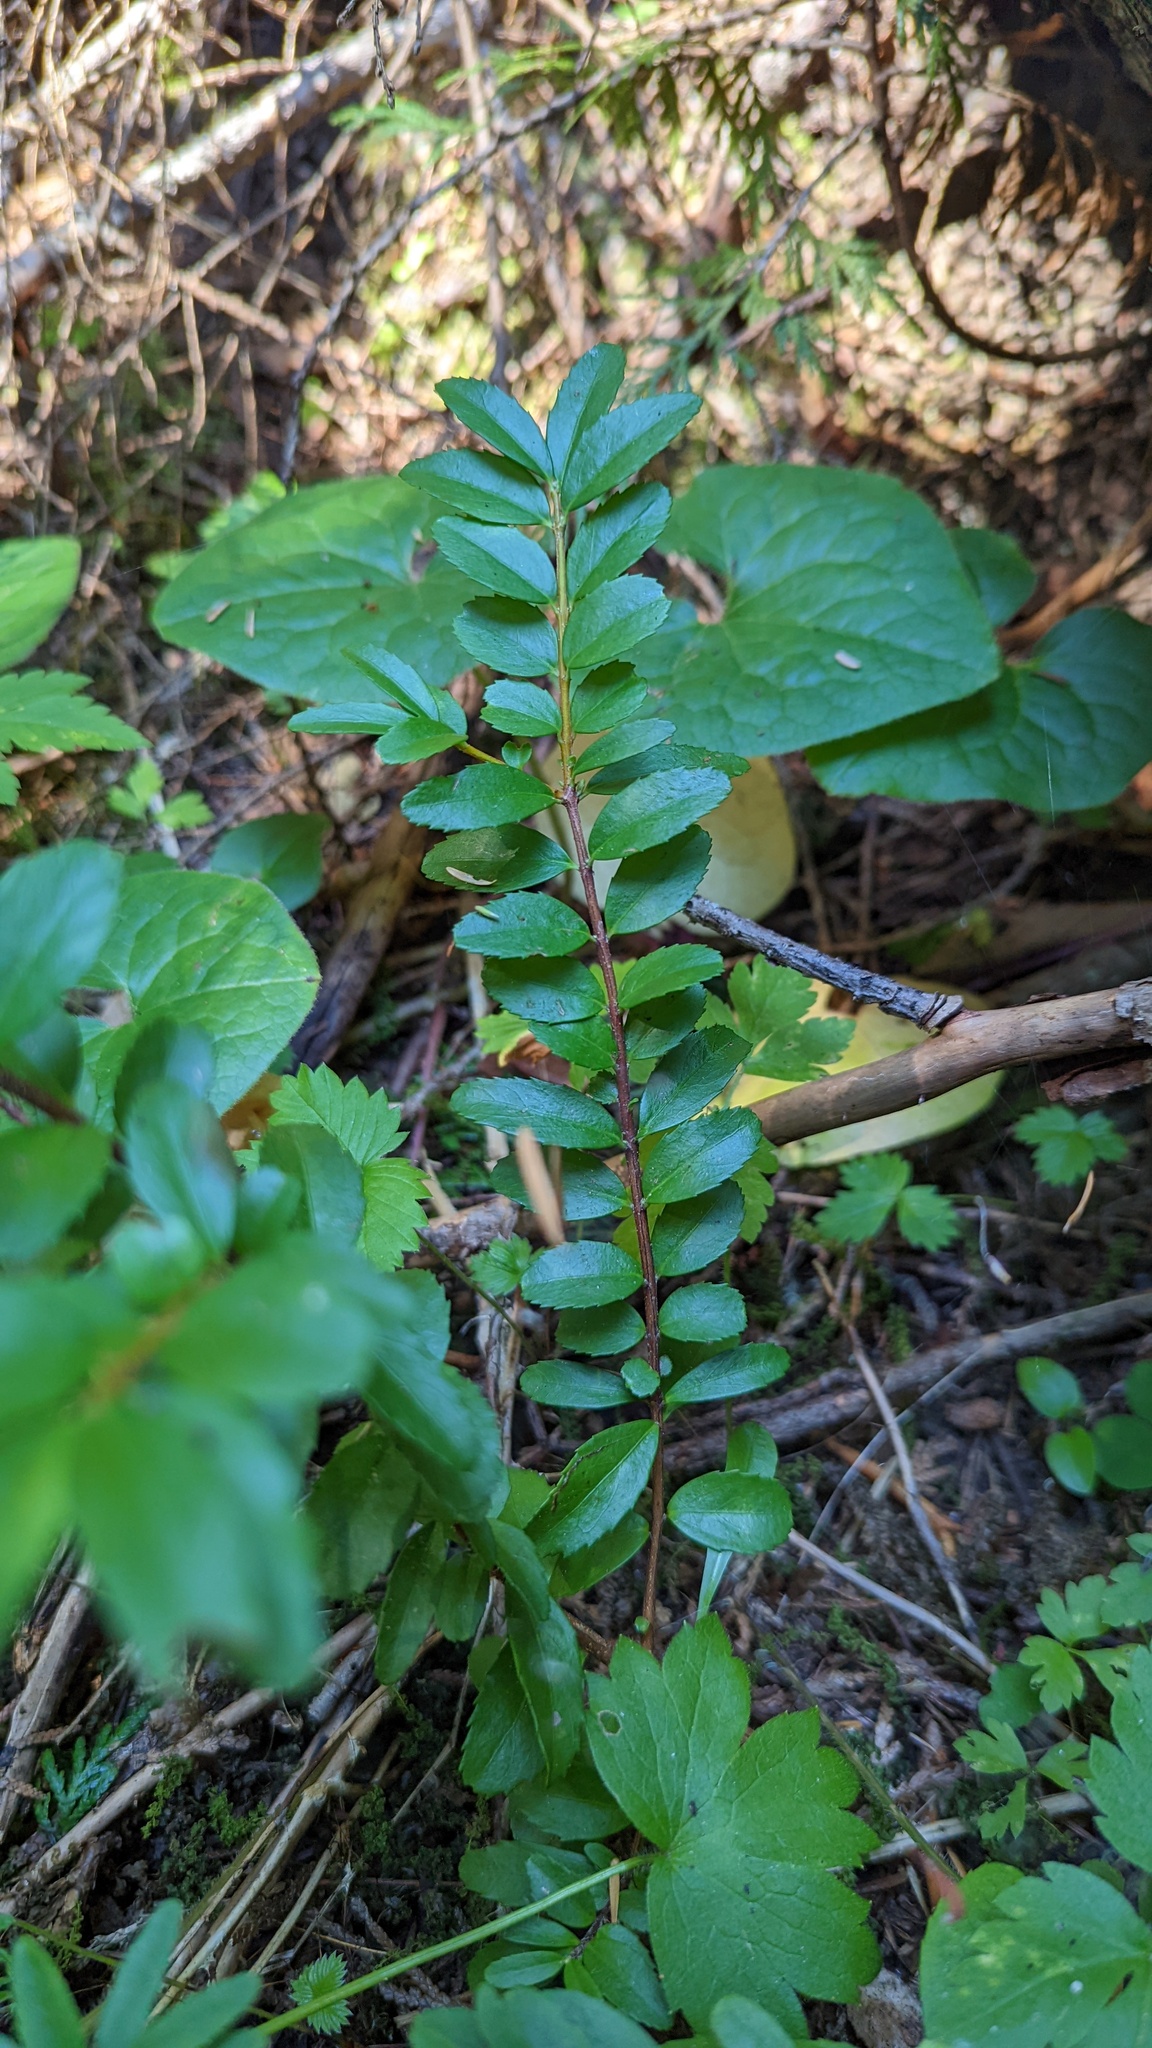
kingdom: Plantae
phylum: Tracheophyta
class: Magnoliopsida
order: Celastrales
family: Celastraceae
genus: Paxistima
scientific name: Paxistima myrsinites
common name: Mountain-lover
